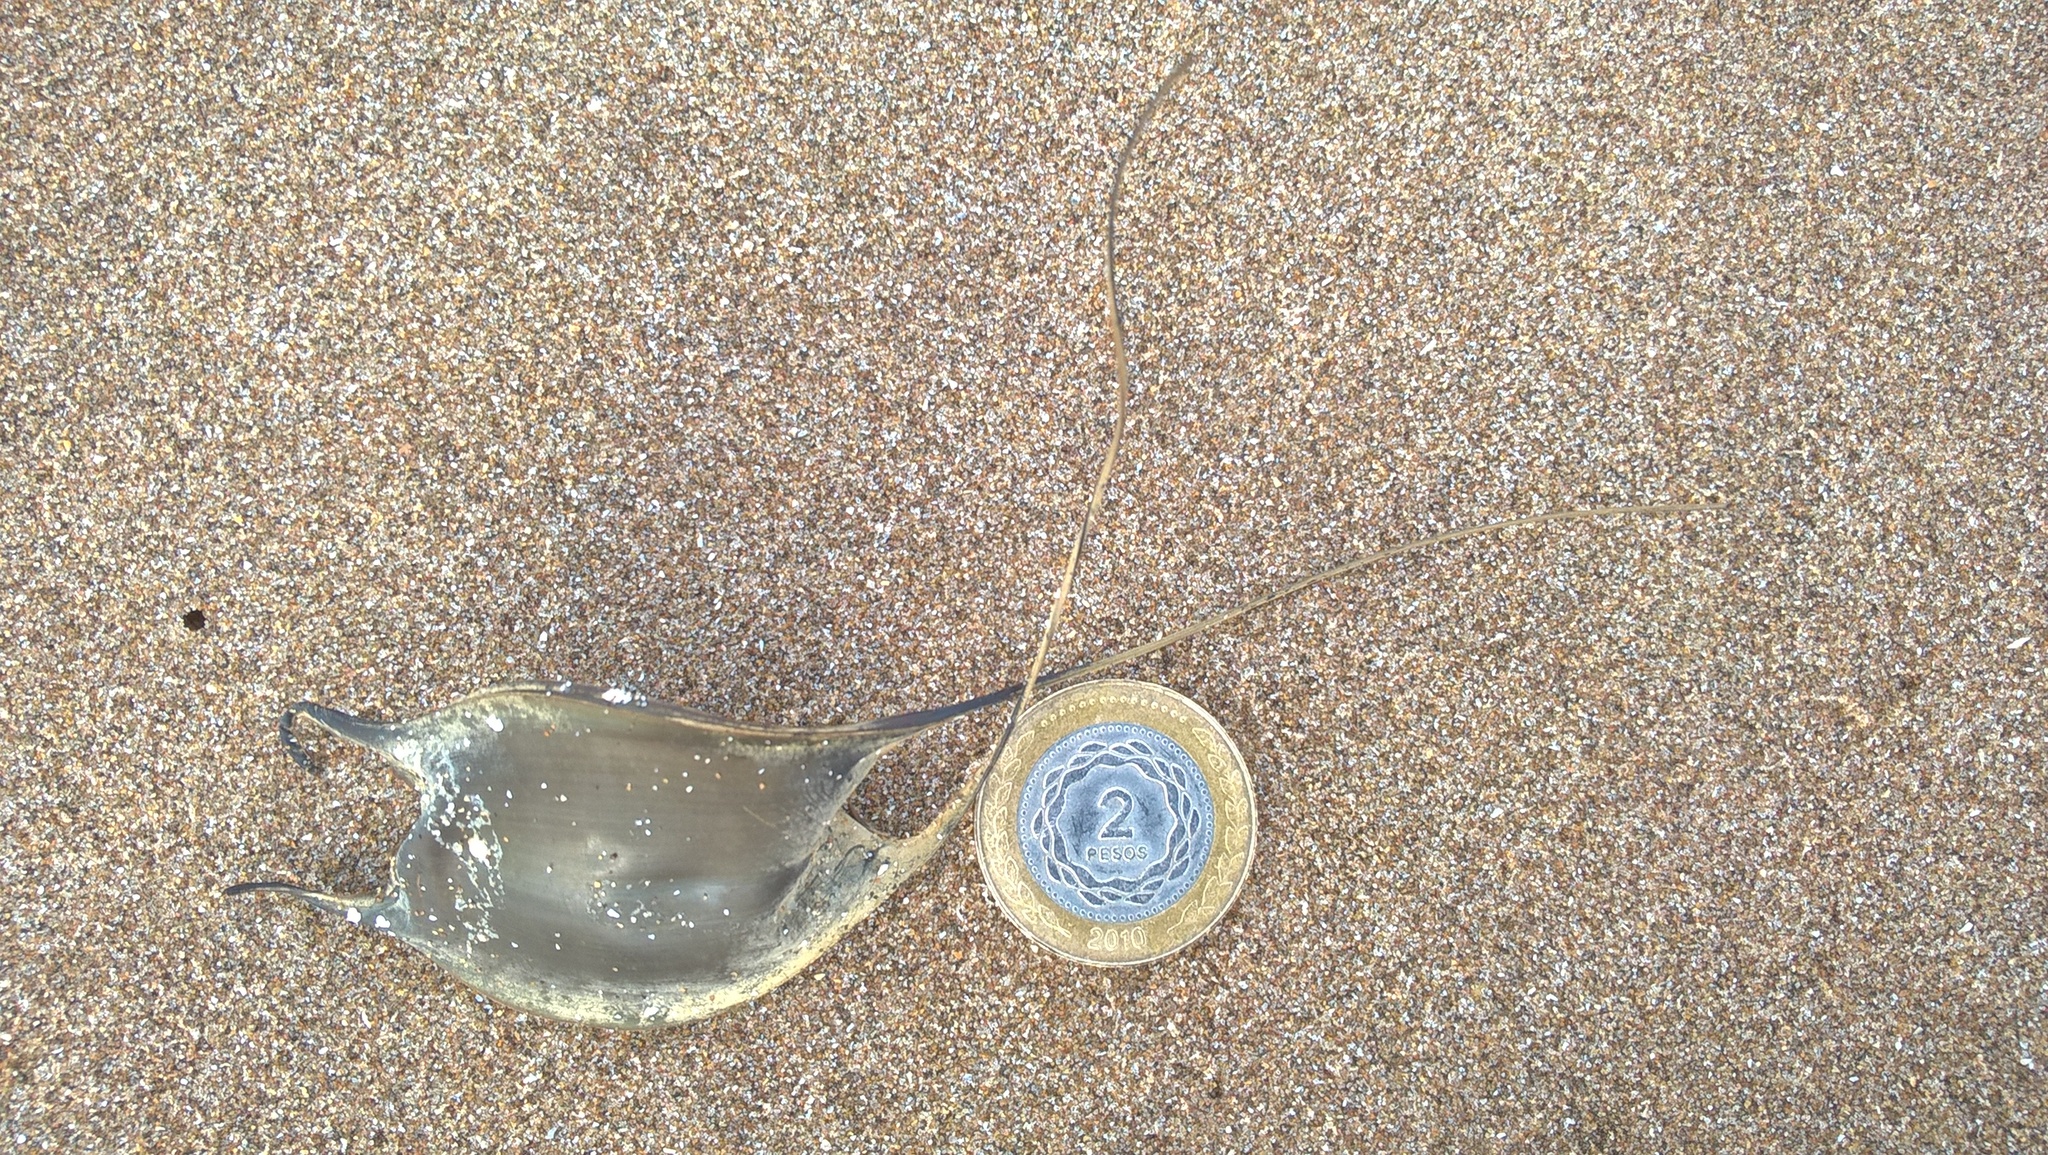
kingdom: Animalia
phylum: Chordata
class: Elasmobranchii
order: Rajiformes
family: Arhynchobatidae
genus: Sympterygia
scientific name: Sympterygia acuta
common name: Bignose fanskate
